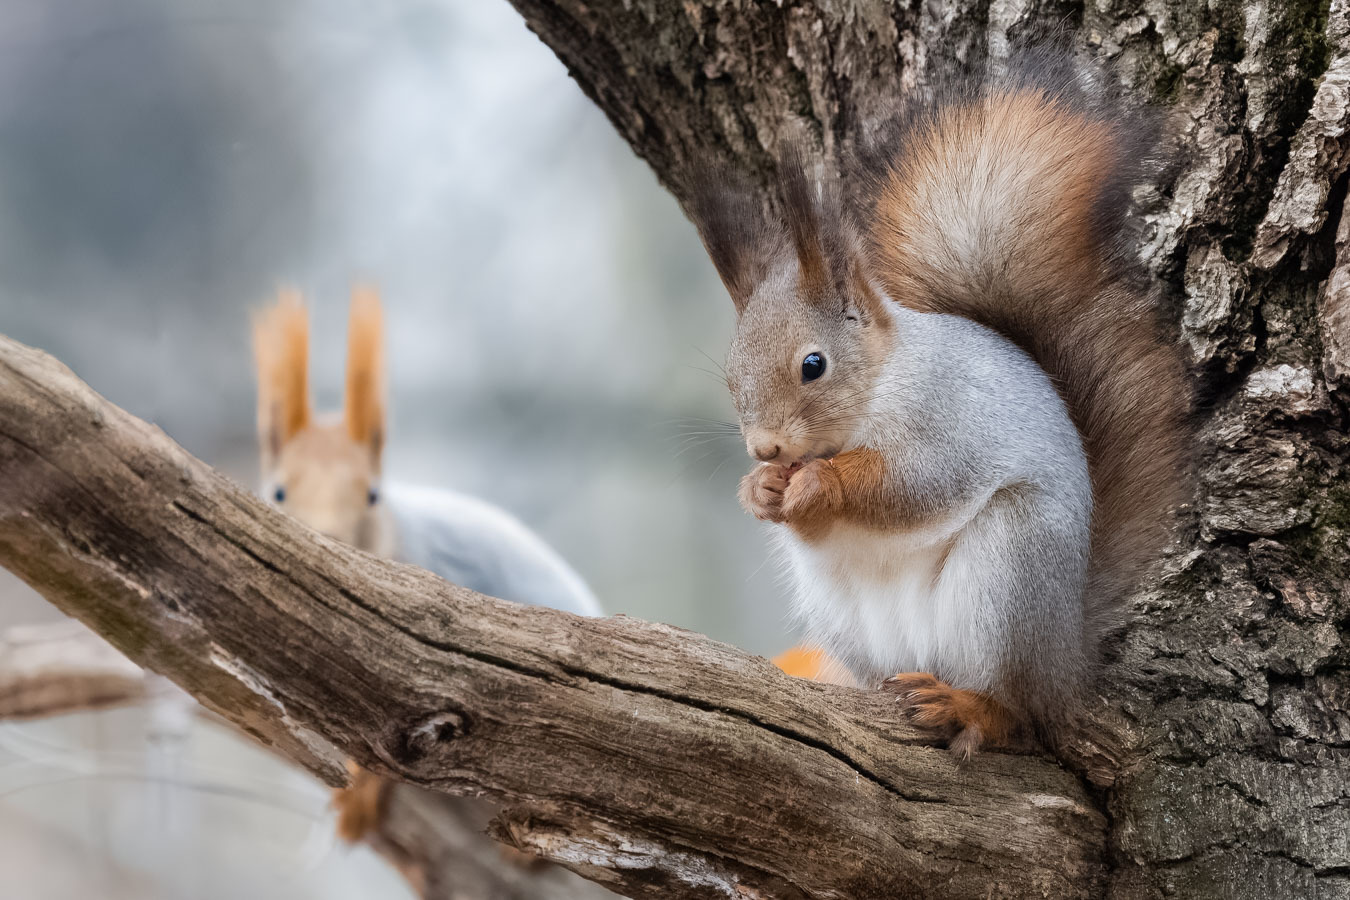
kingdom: Animalia
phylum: Chordata
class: Mammalia
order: Rodentia
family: Sciuridae
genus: Sciurus
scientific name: Sciurus vulgaris
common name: Eurasian red squirrel
